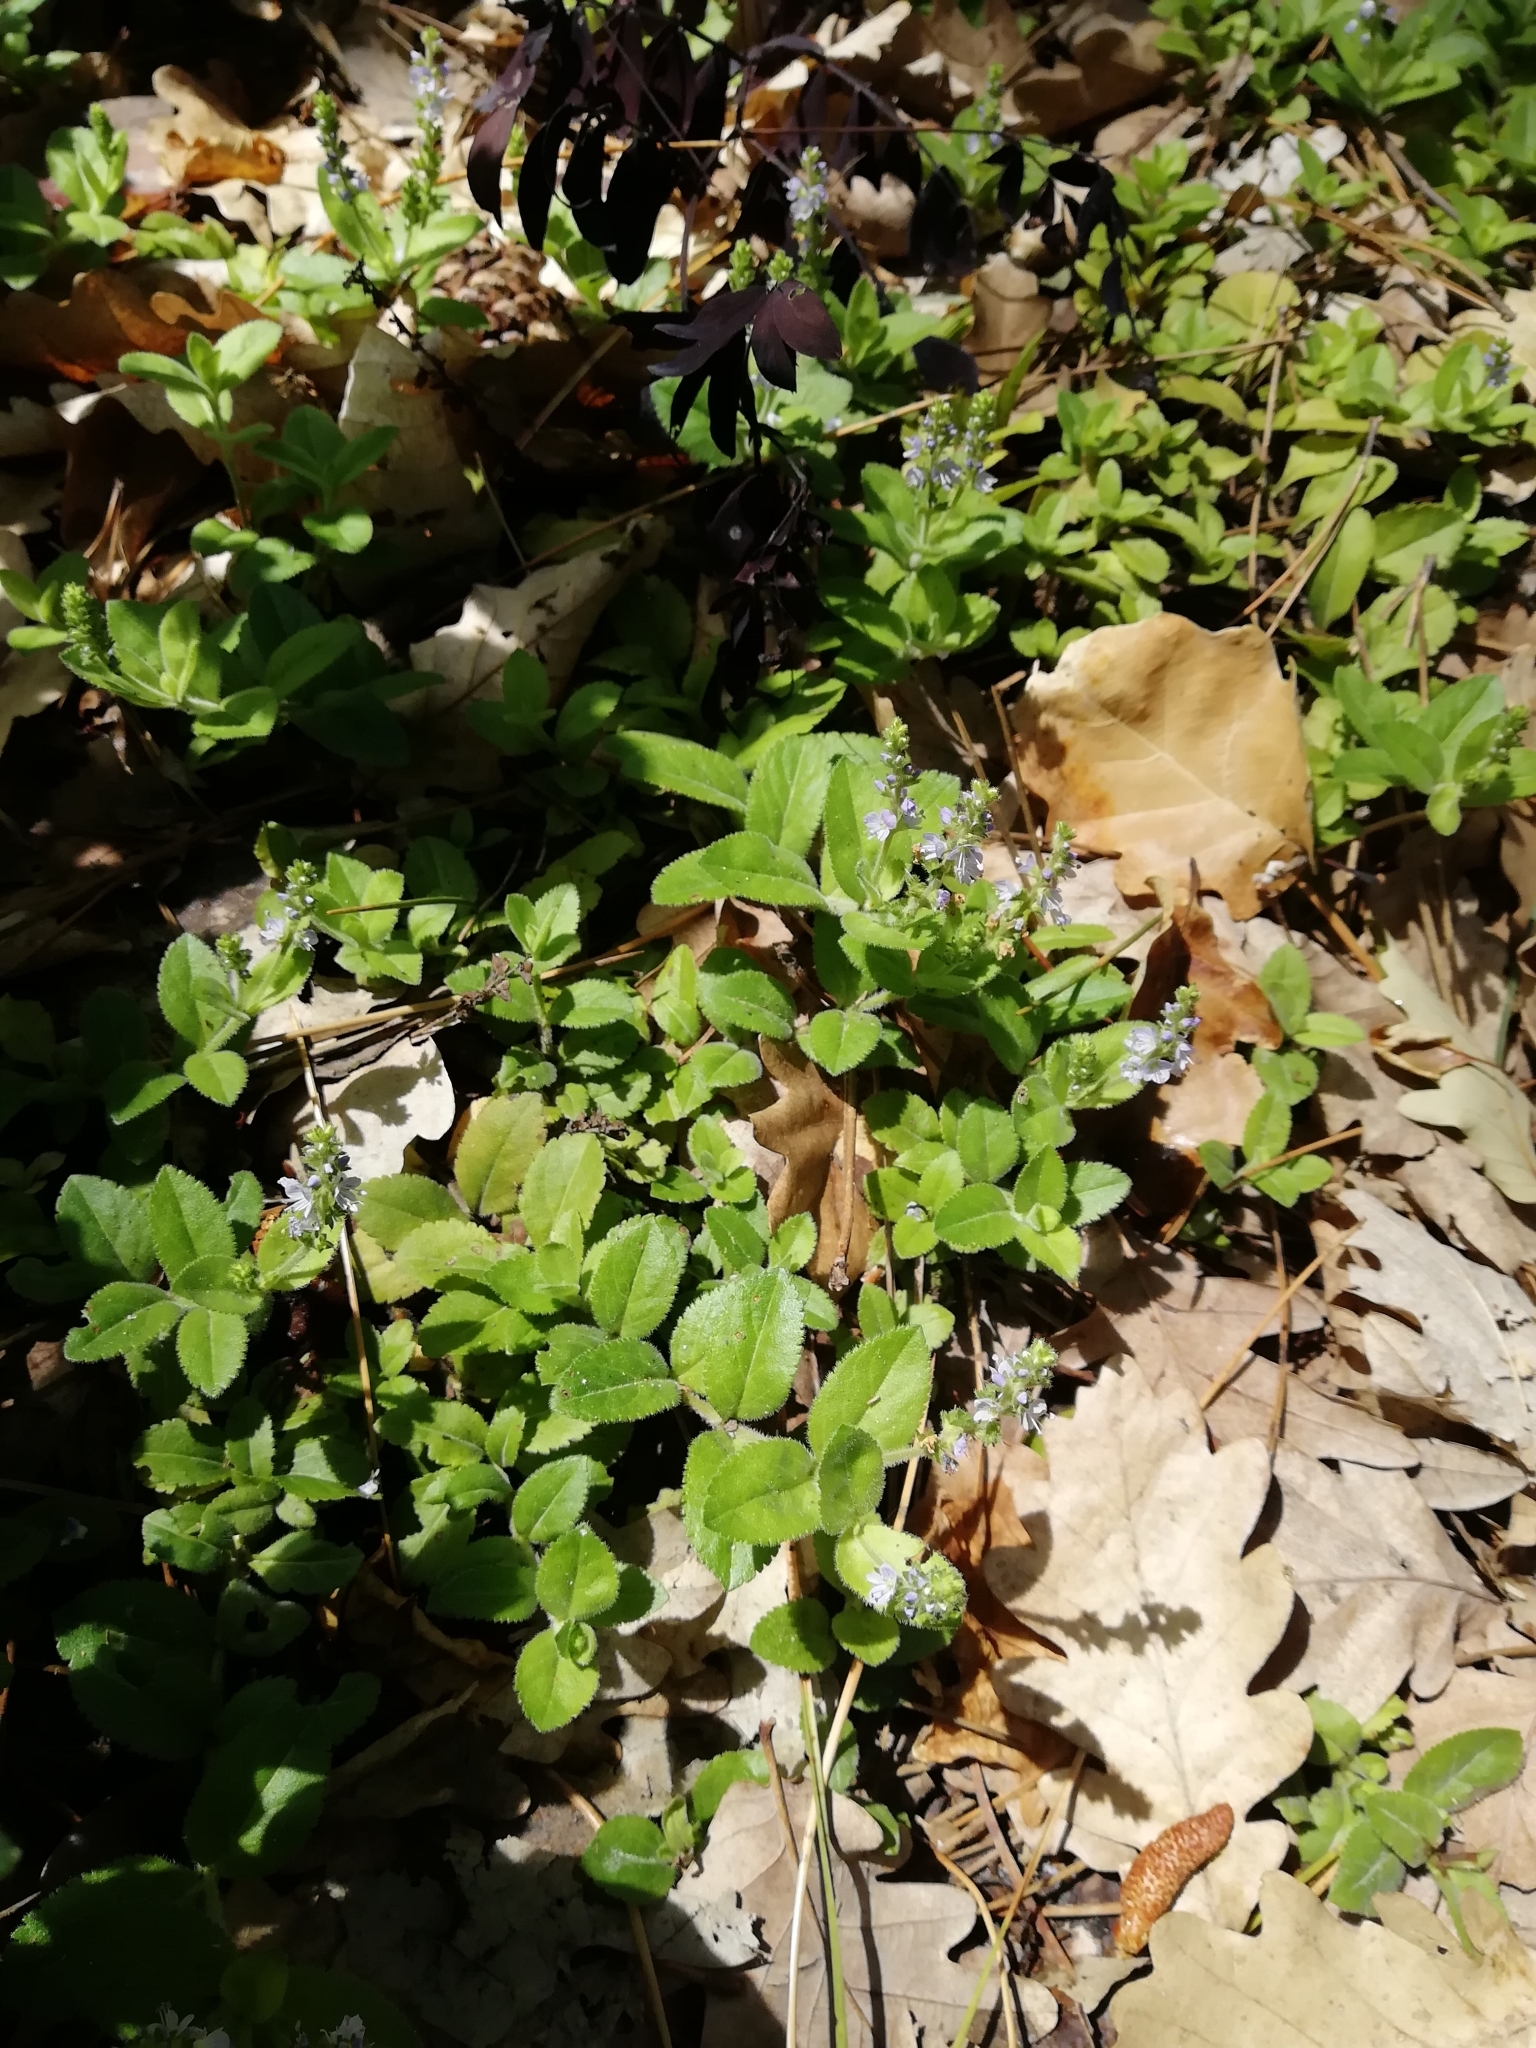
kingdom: Plantae
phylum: Tracheophyta
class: Magnoliopsida
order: Lamiales
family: Plantaginaceae
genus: Veronica
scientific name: Veronica officinalis
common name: Common speedwell
